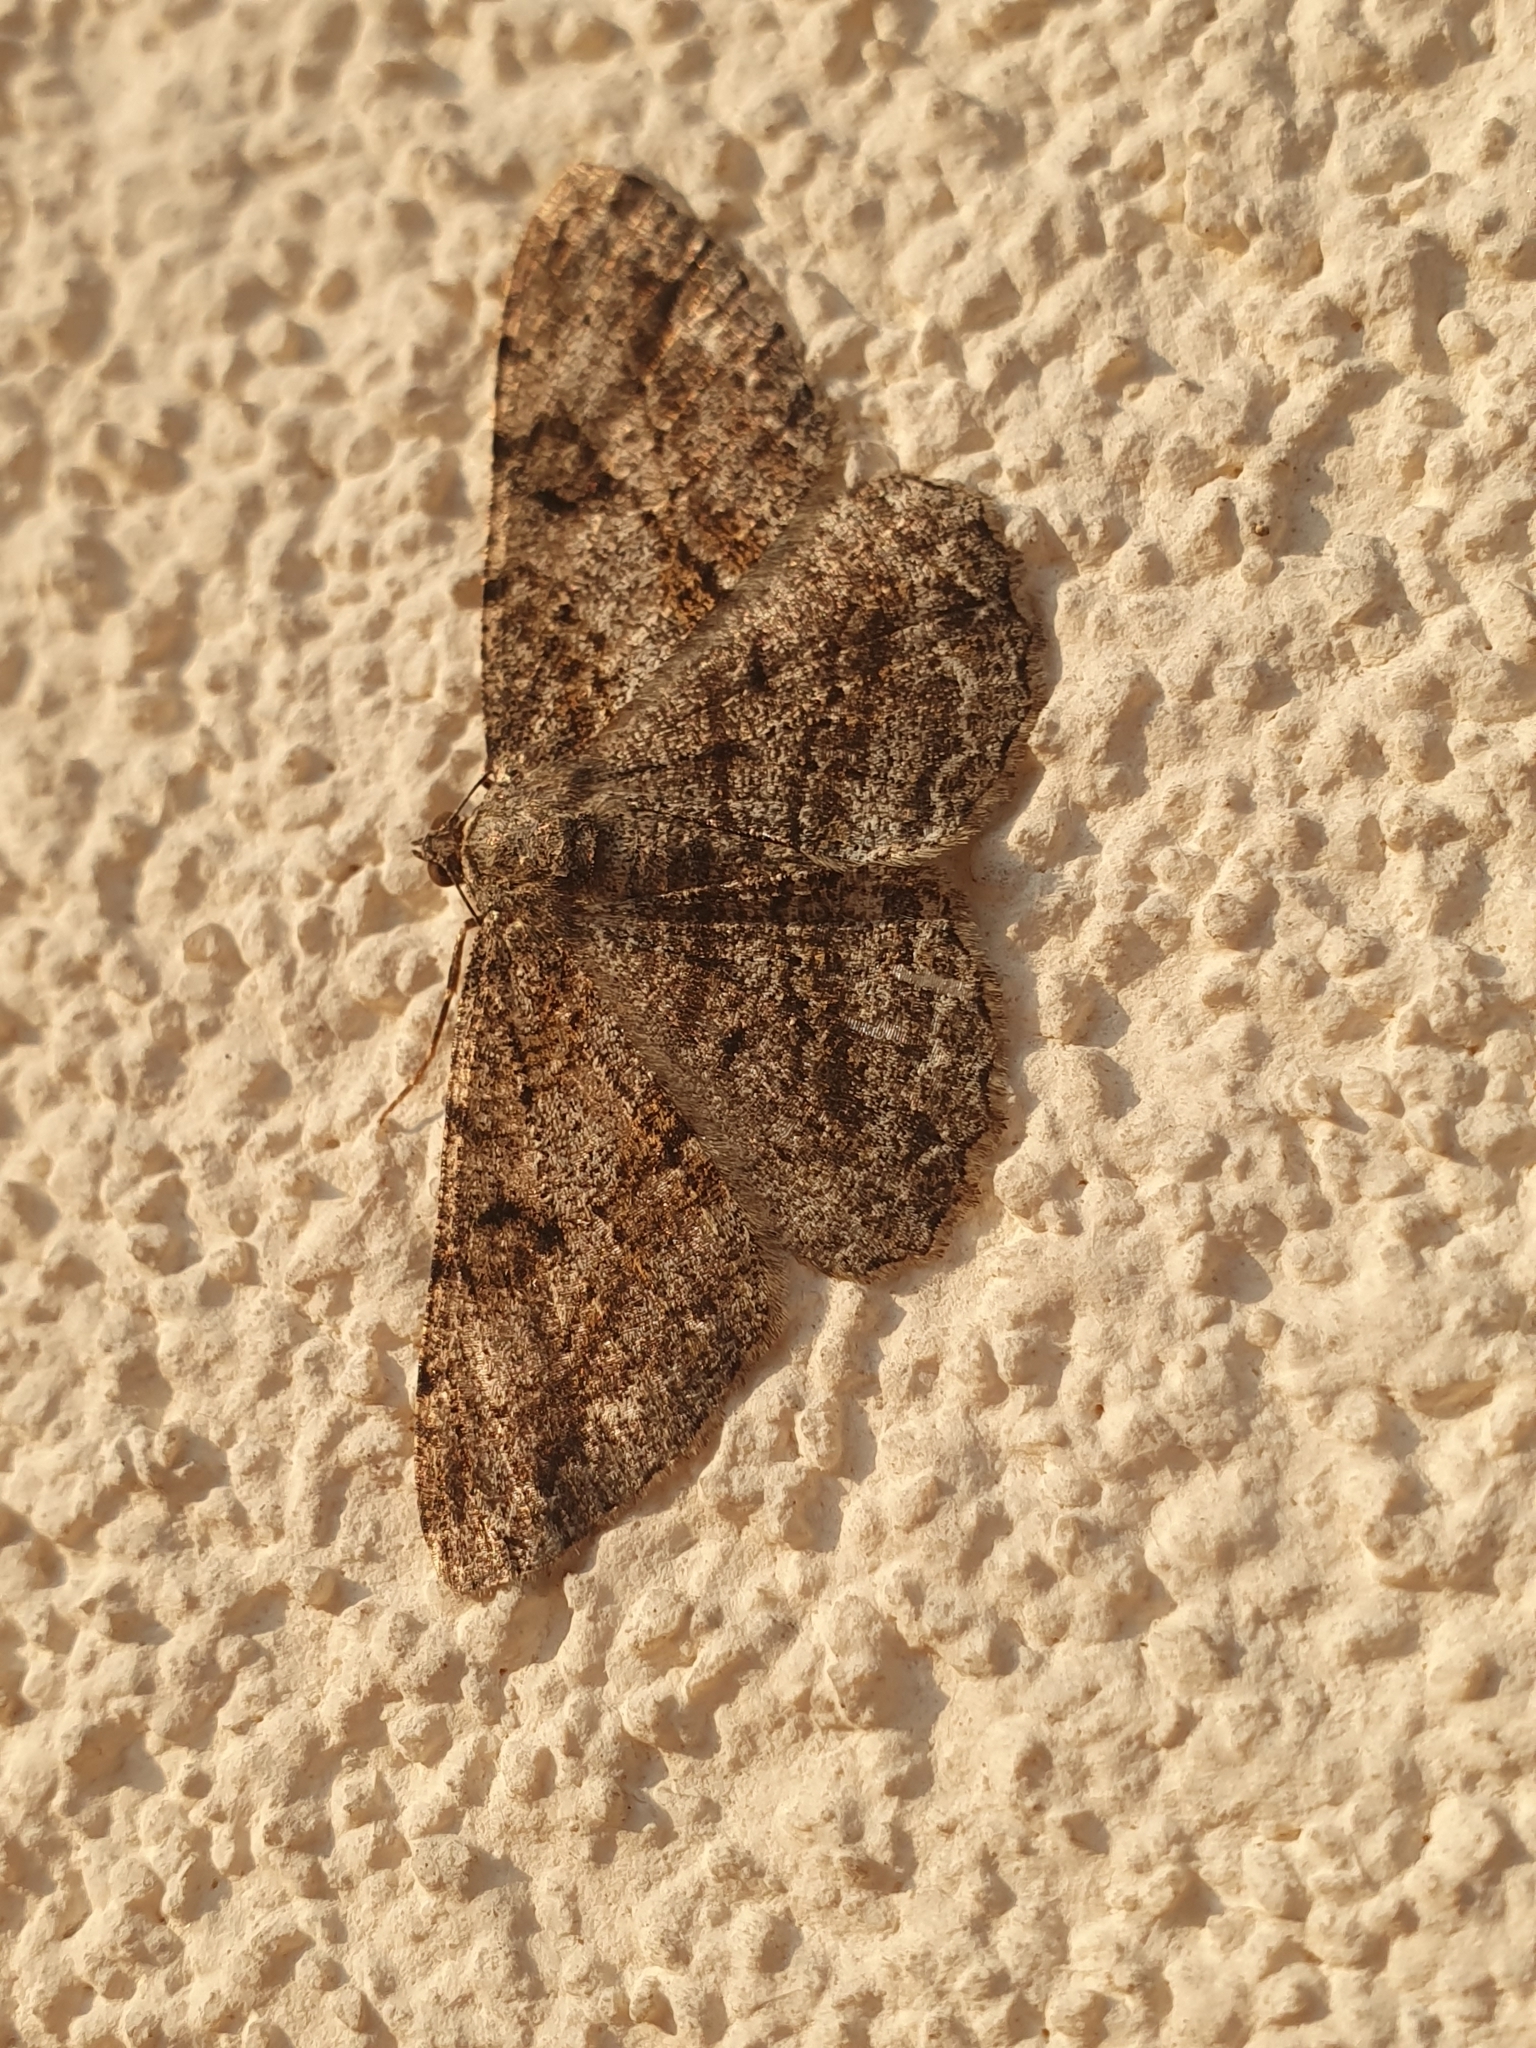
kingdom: Animalia
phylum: Arthropoda
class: Insecta
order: Lepidoptera
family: Geometridae
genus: Peribatodes
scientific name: Peribatodes rhomboidaria
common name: Willow beauty
